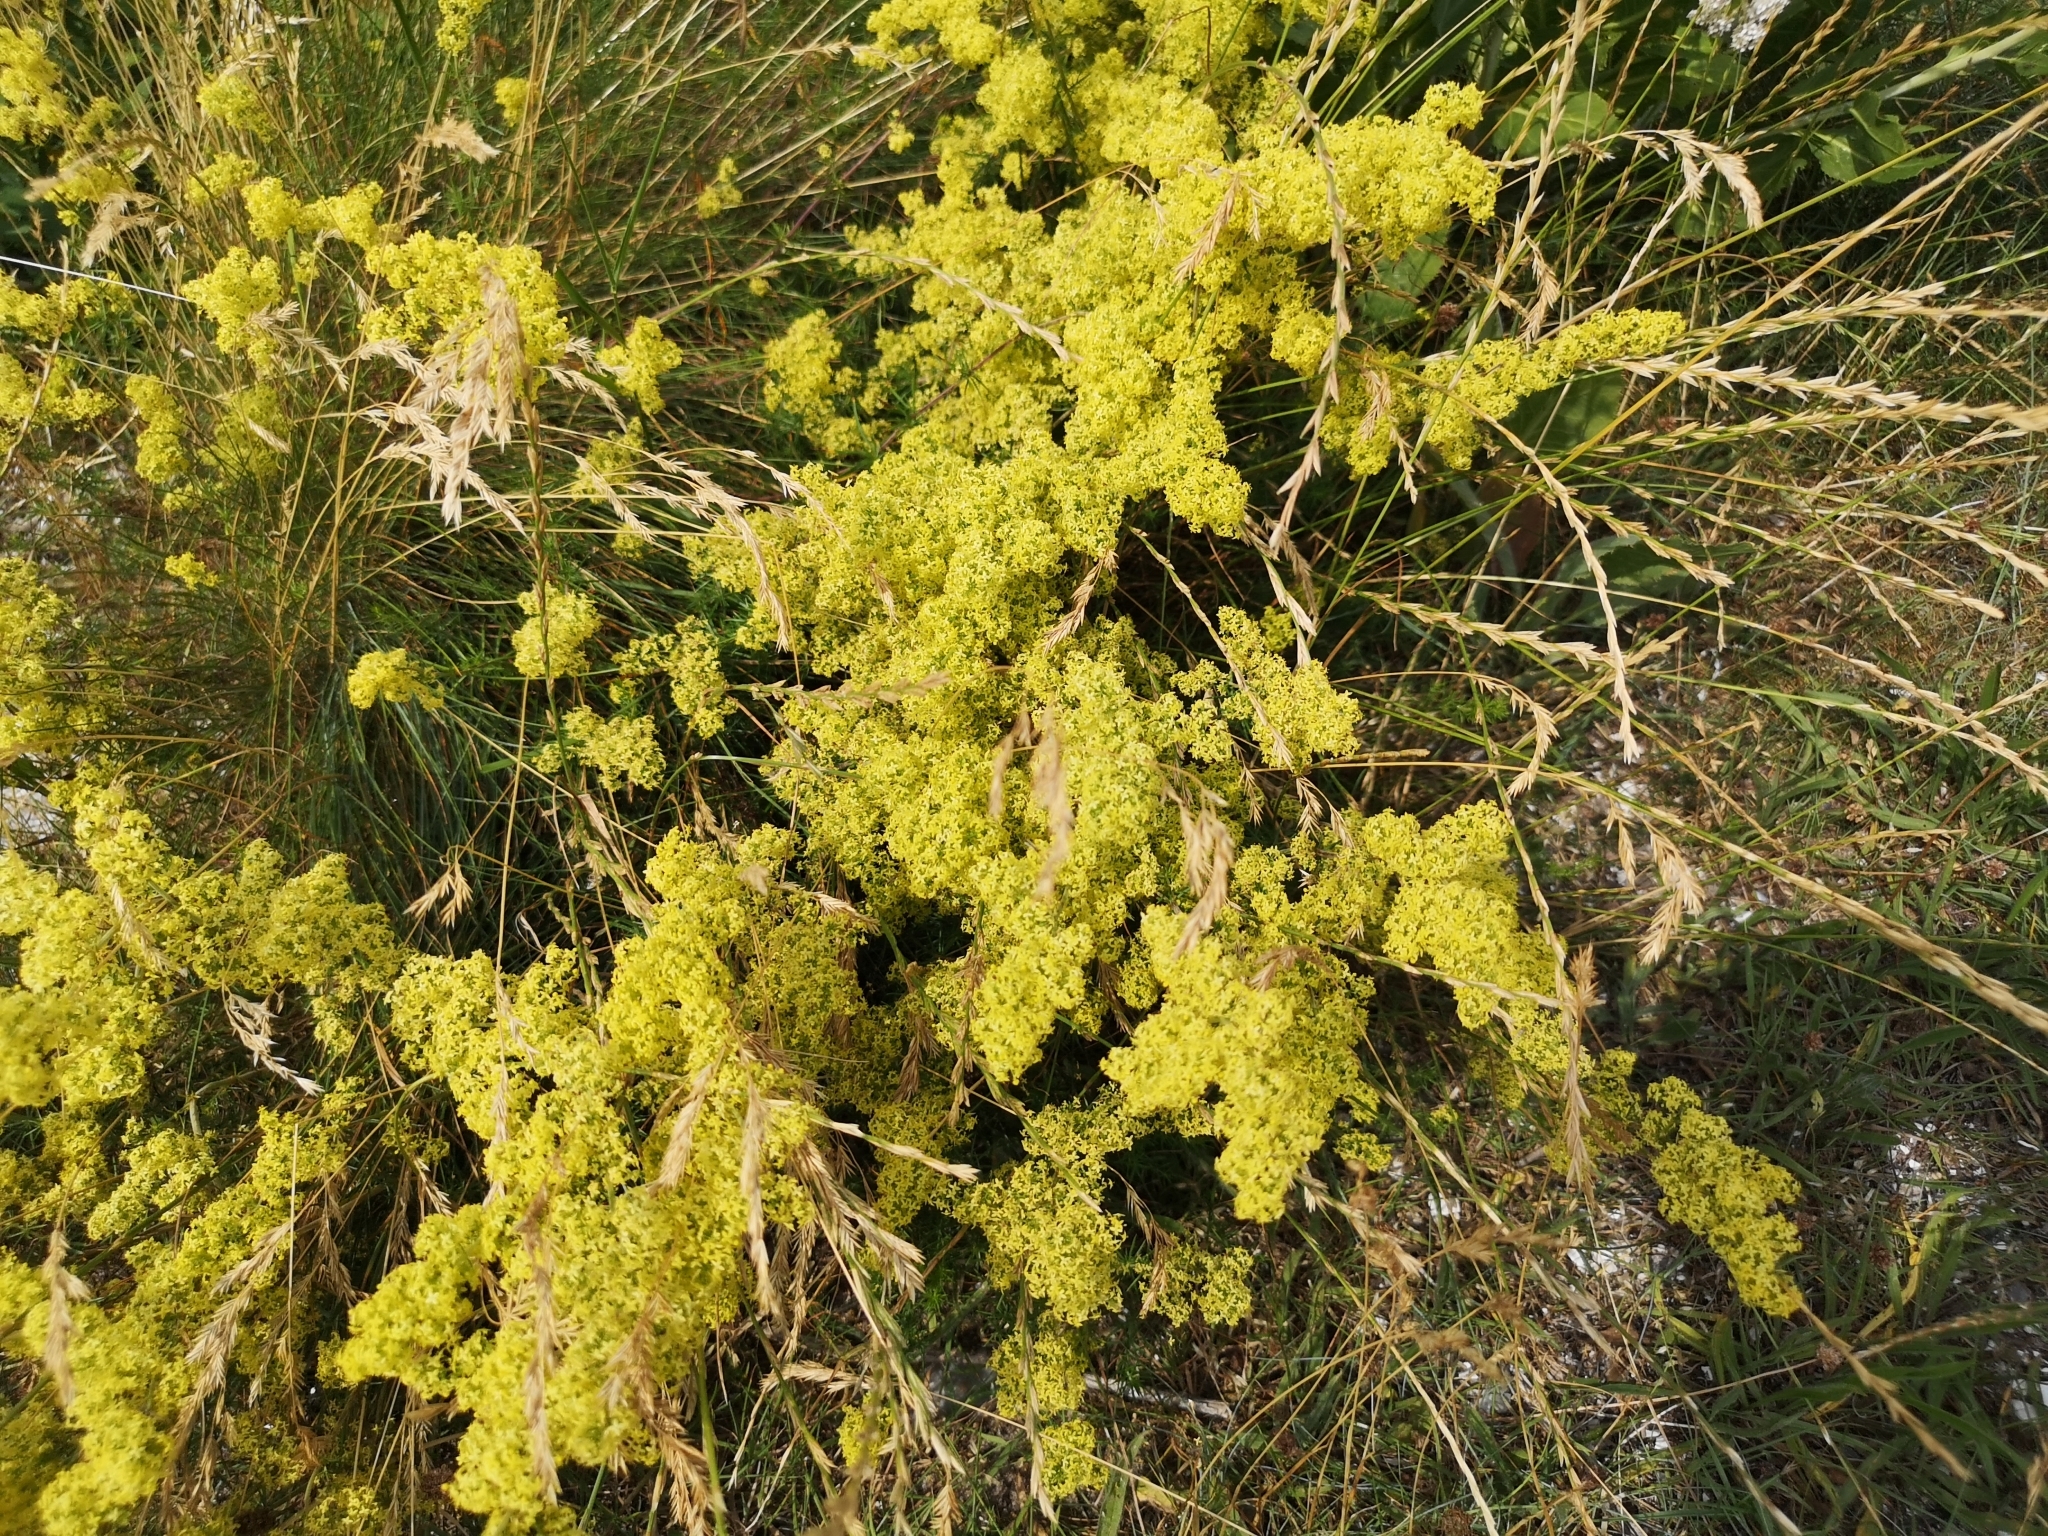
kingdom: Plantae
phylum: Tracheophyta
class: Magnoliopsida
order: Gentianales
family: Rubiaceae
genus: Galium
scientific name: Galium verum
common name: Lady's bedstraw
